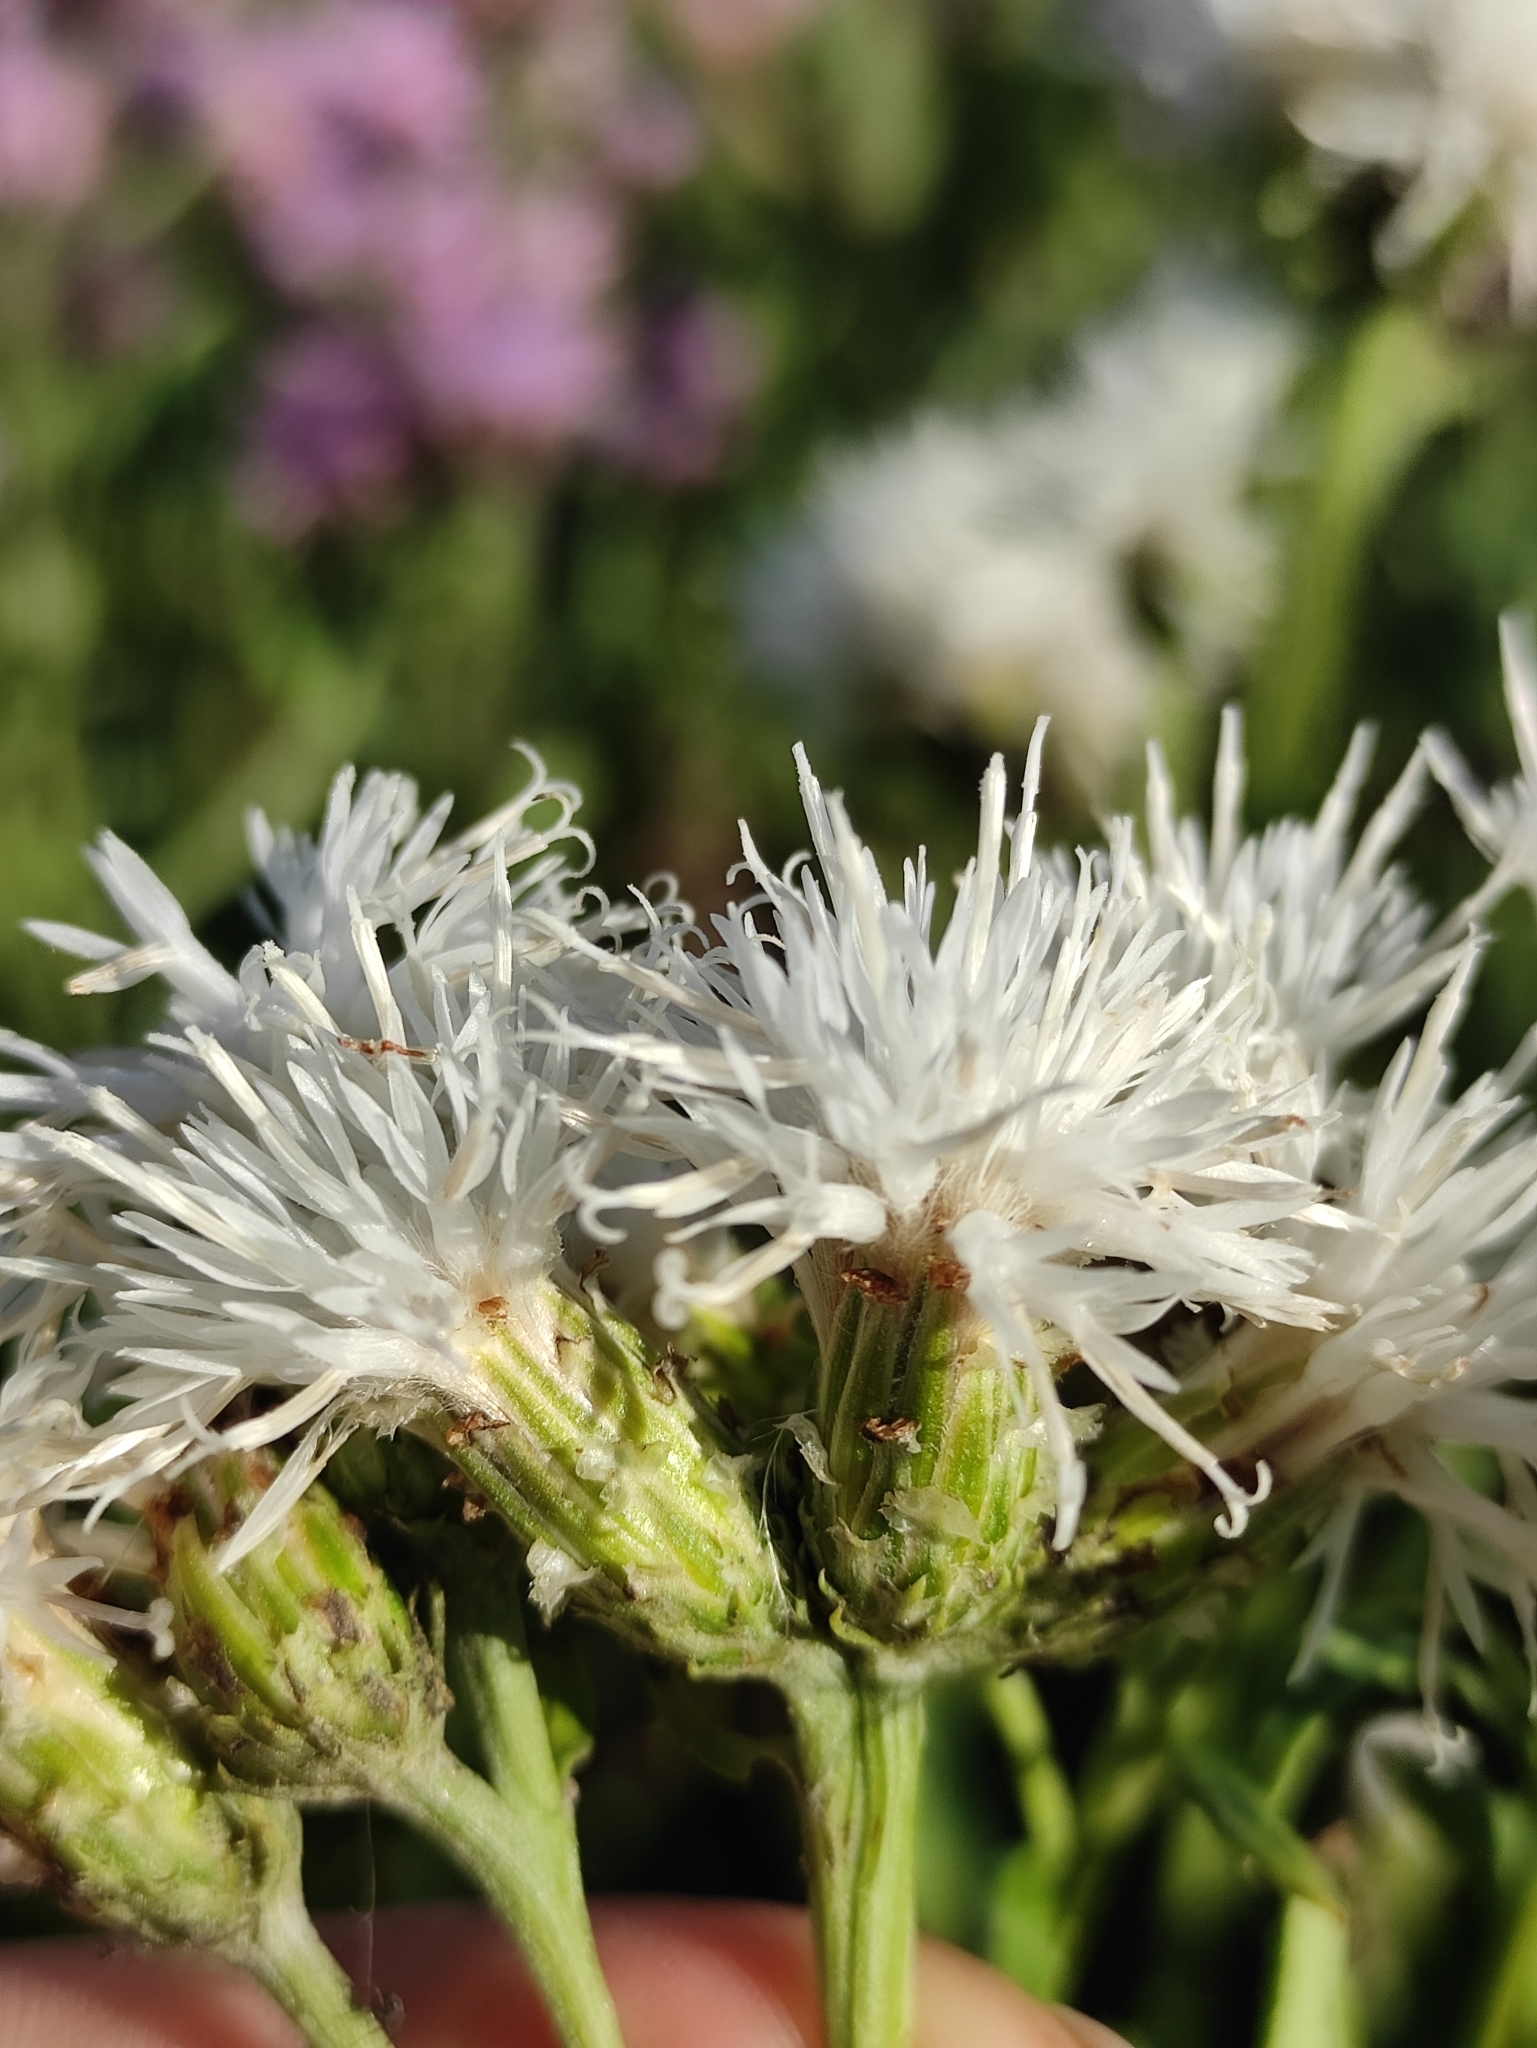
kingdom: Plantae
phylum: Tracheophyta
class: Magnoliopsida
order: Asterales
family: Asteraceae
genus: Saussurea
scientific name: Saussurea amara
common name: Alberta sawwort
